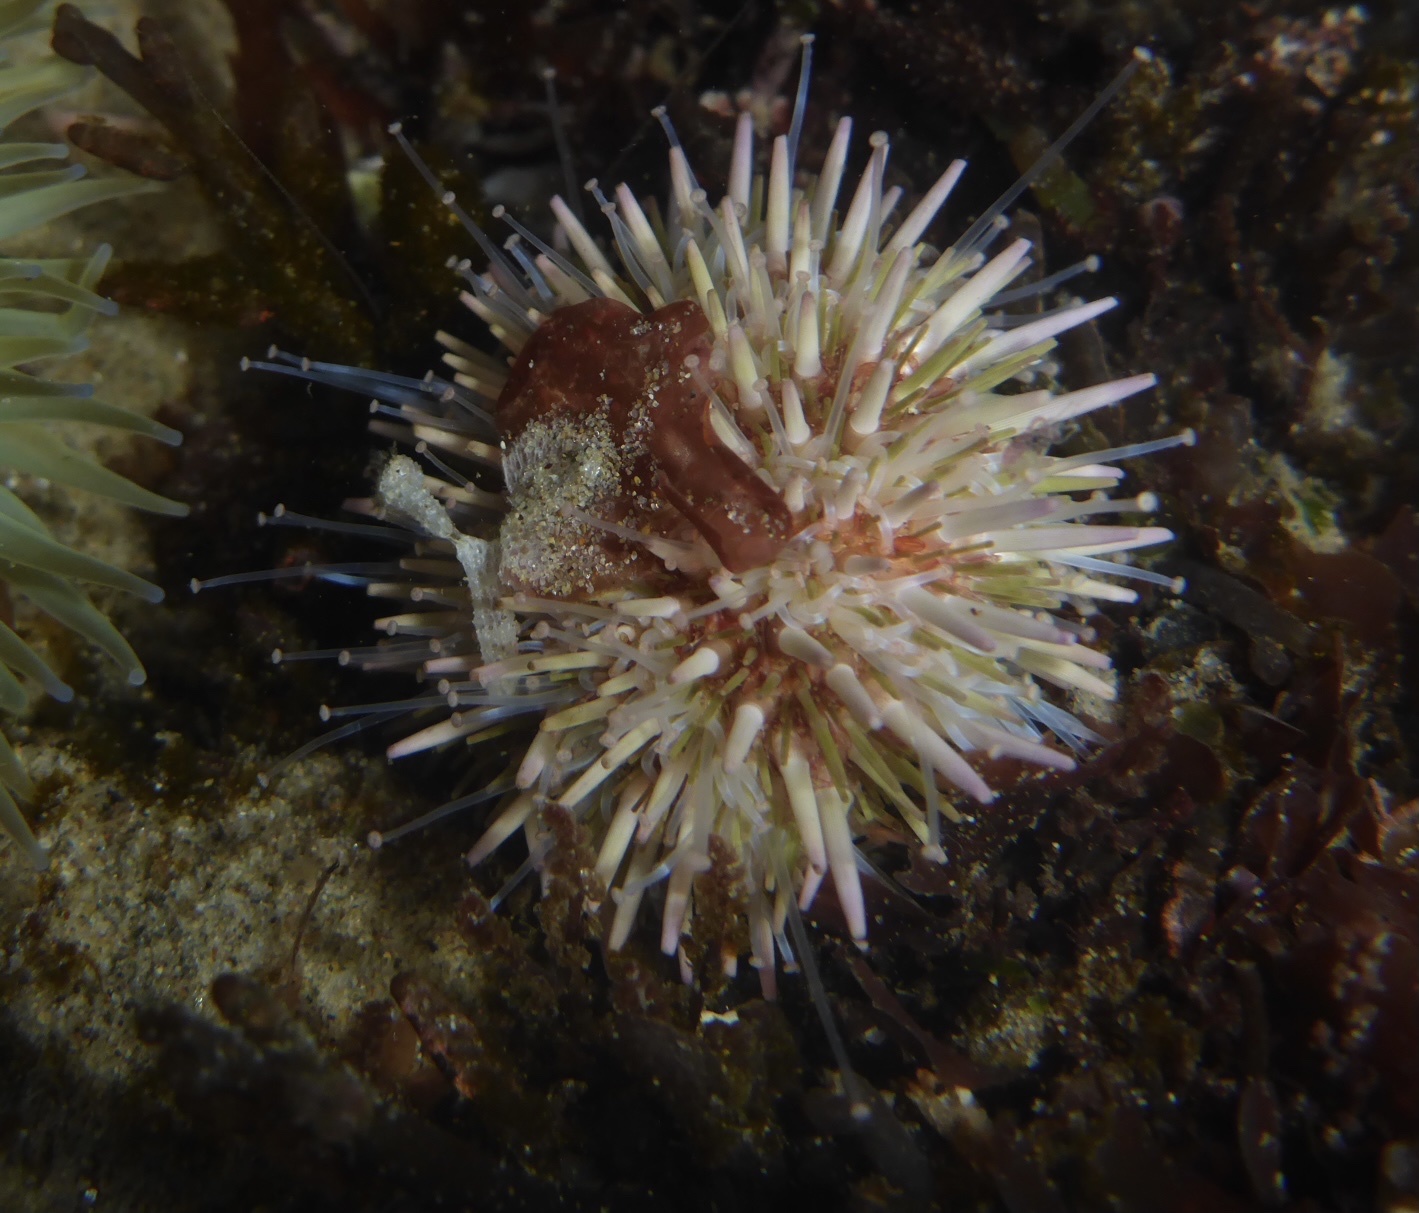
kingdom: Animalia
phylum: Echinodermata
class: Echinoidea
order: Camarodonta
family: Strongylocentrotidae
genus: Strongylocentrotus
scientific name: Strongylocentrotus purpuratus
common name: Purple sea urchin
